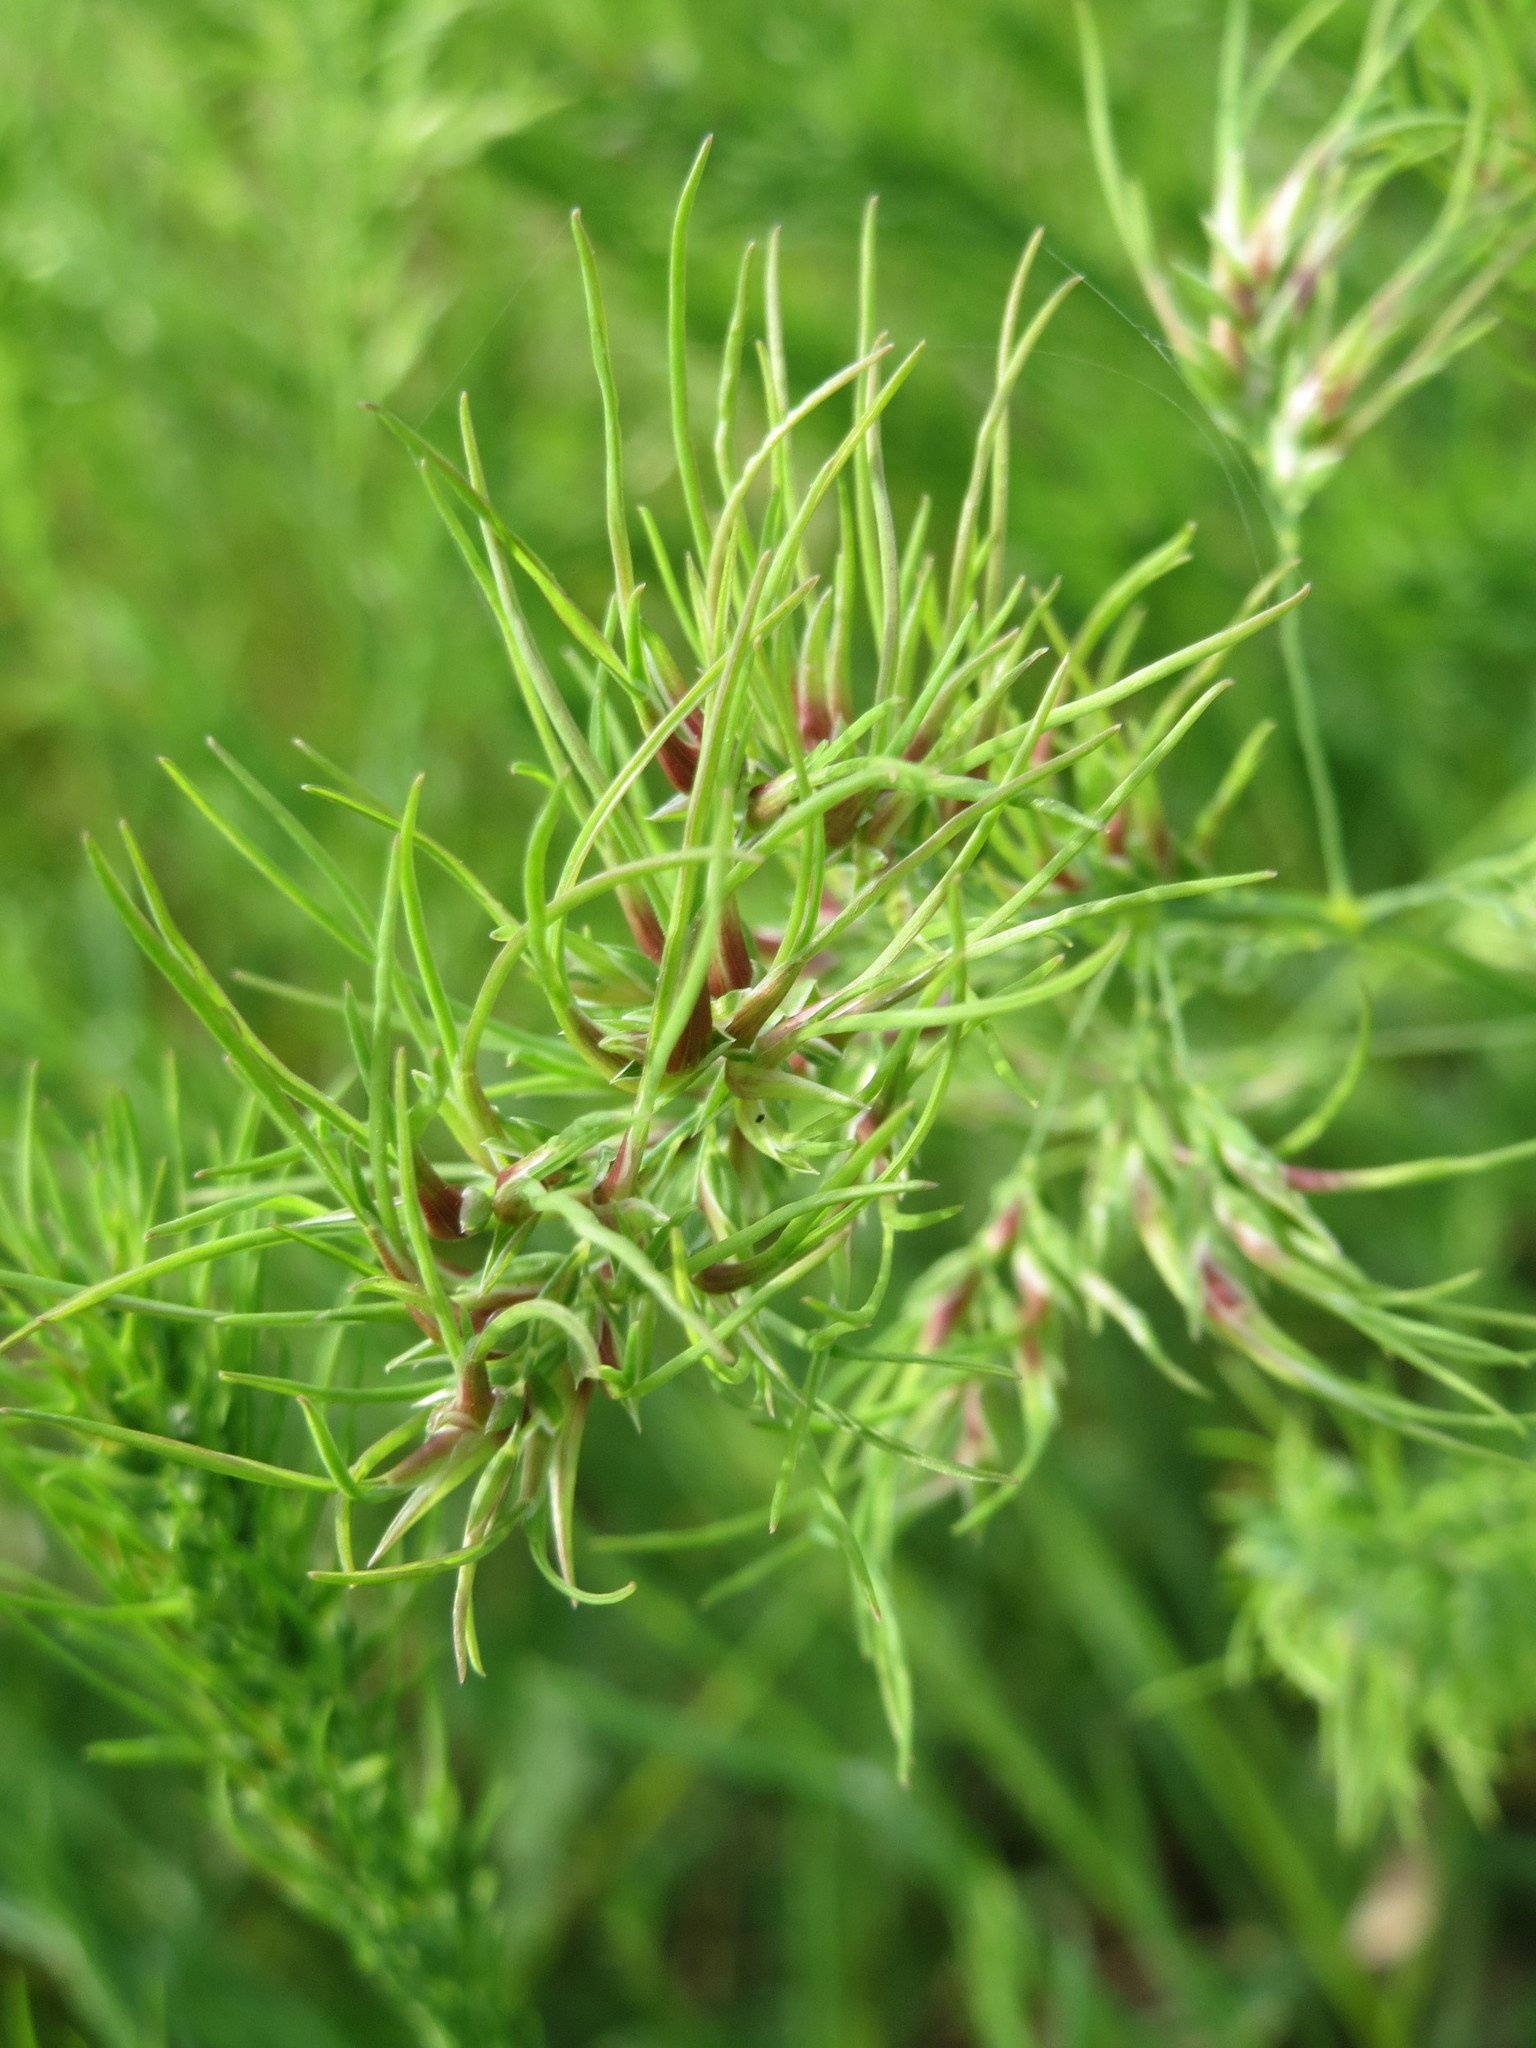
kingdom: Plantae
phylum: Tracheophyta
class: Liliopsida
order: Poales
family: Poaceae
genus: Poa
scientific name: Poa bulbosa
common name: Bulbous bluegrass
